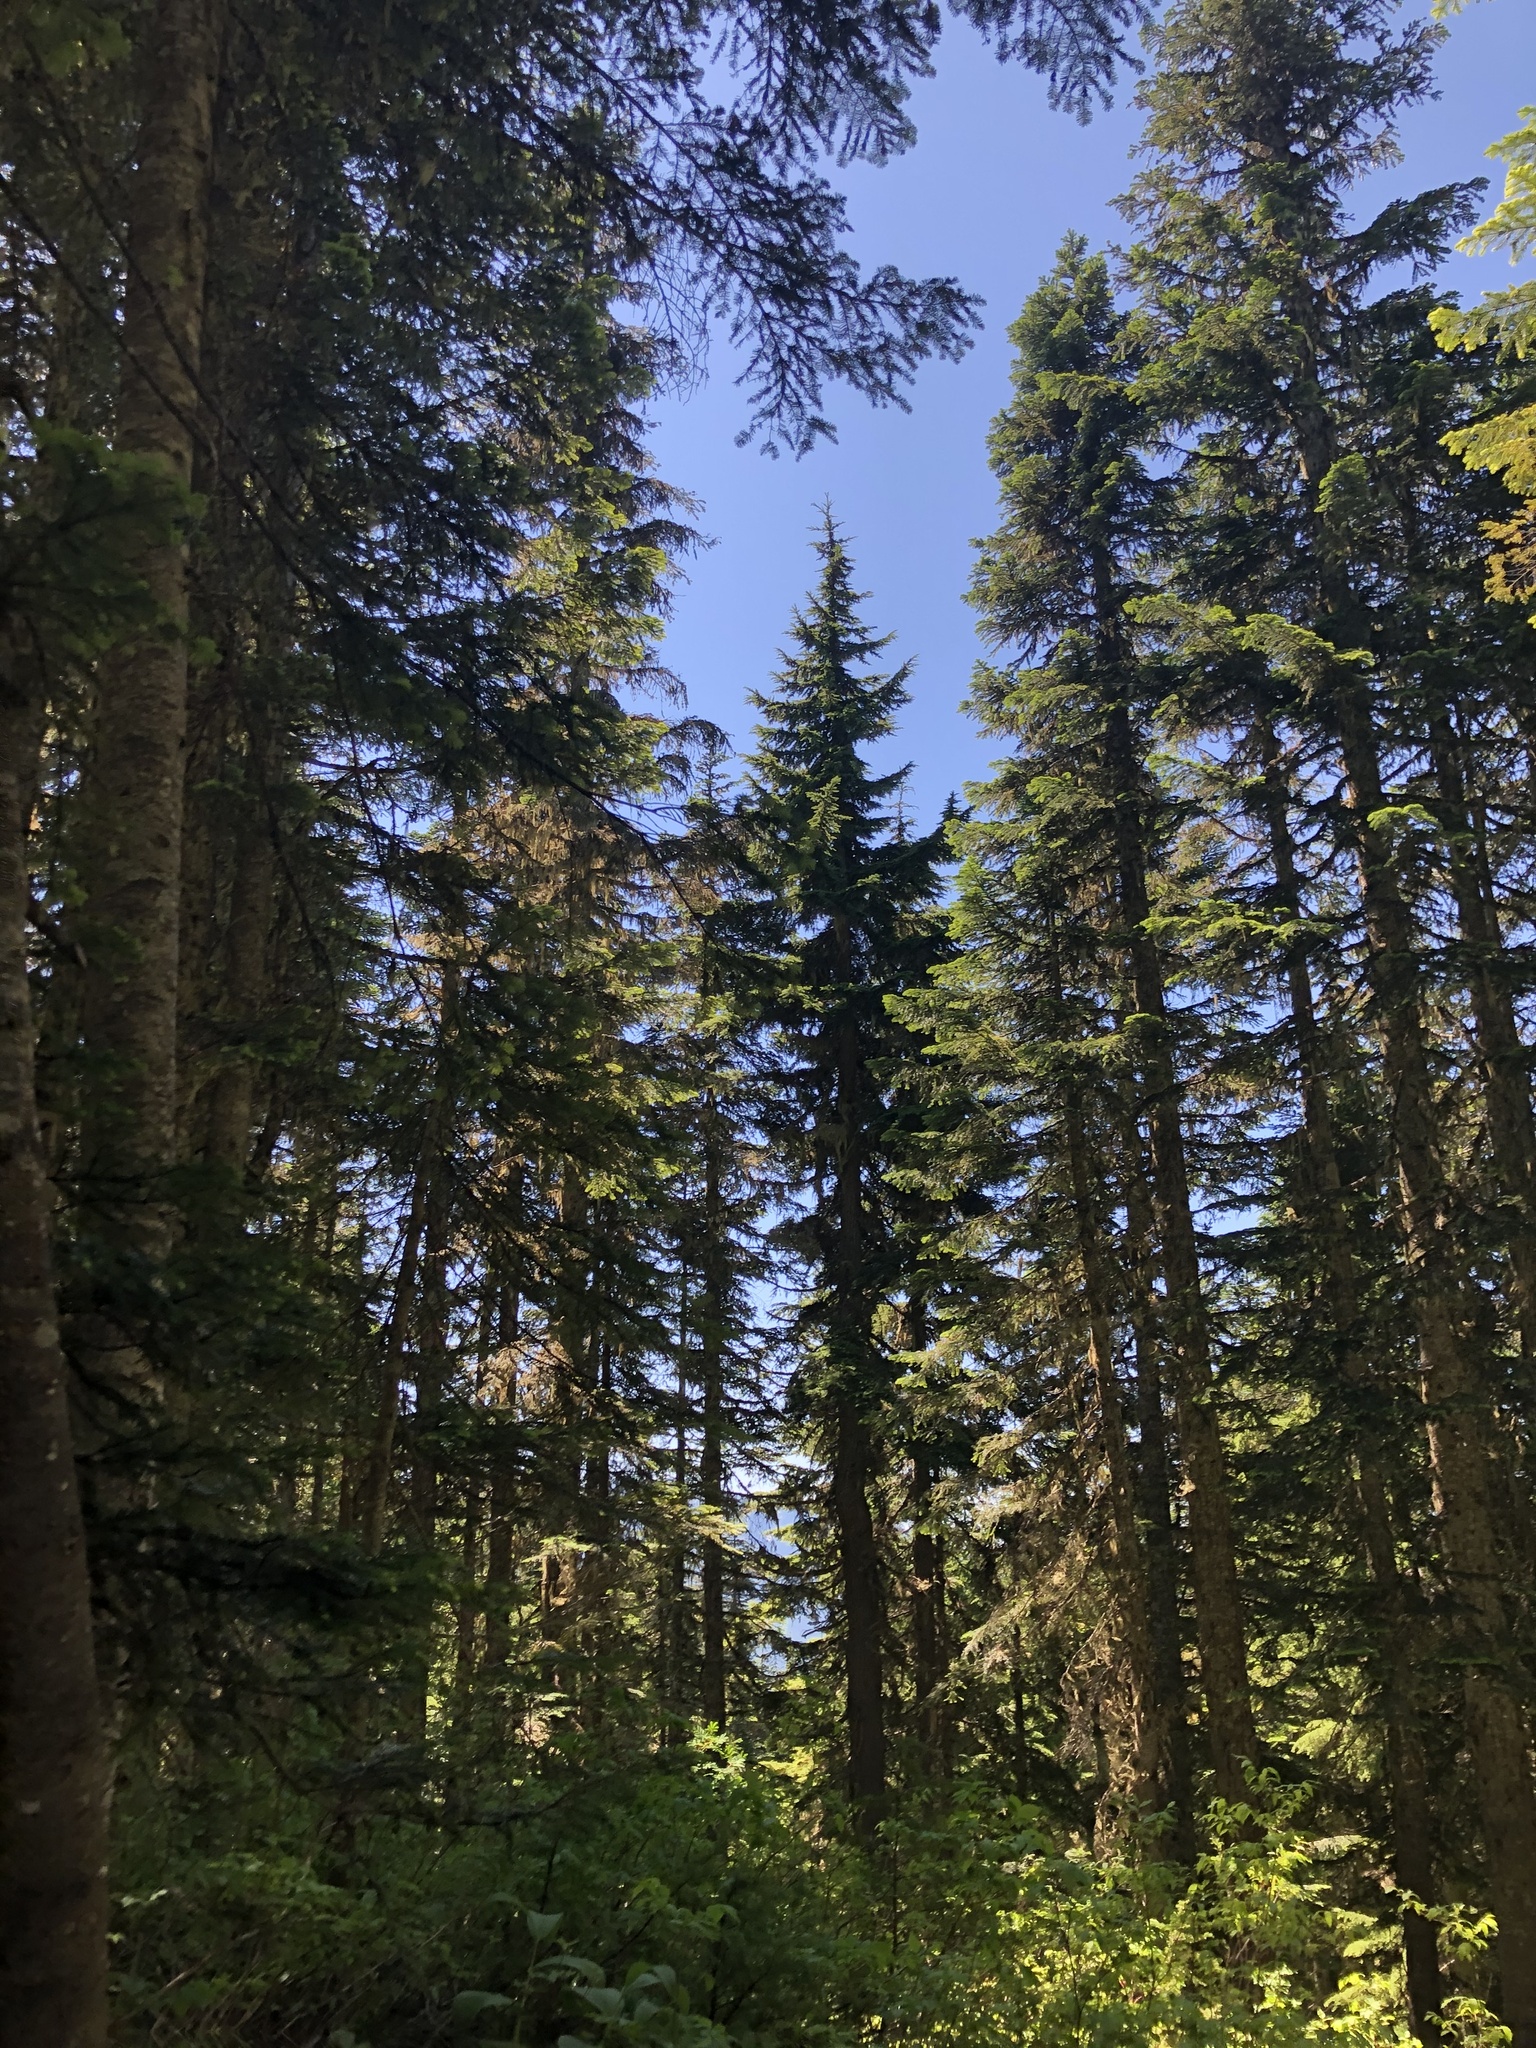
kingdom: Plantae
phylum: Tracheophyta
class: Pinopsida
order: Pinales
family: Pinaceae
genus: Abies
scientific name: Abies amabilis
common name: Pacific silver fir
